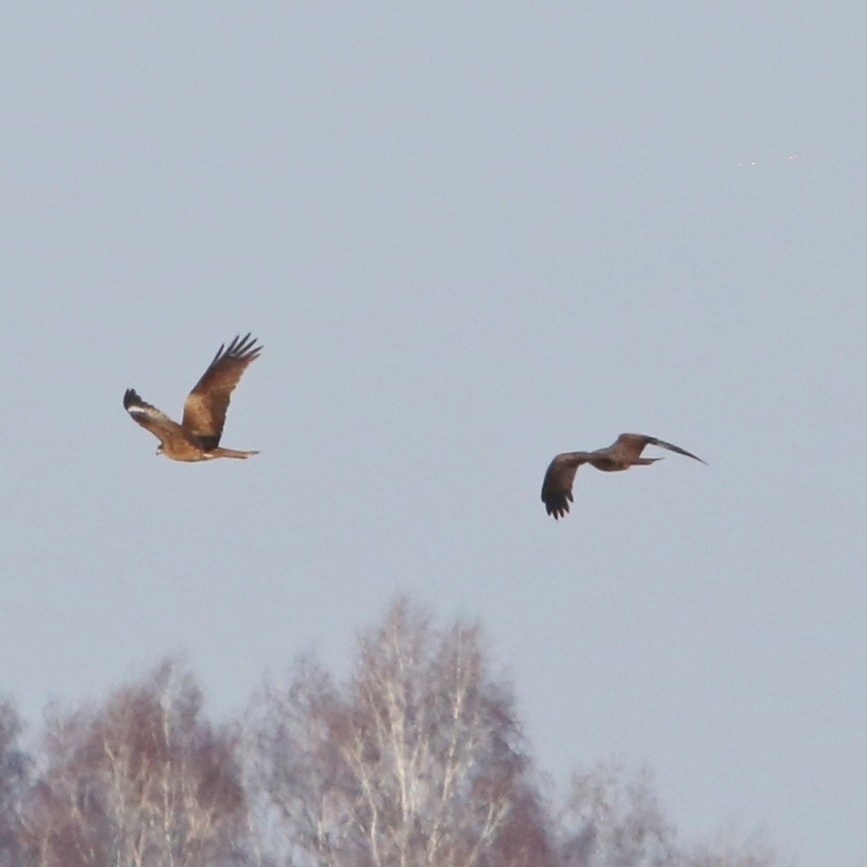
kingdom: Animalia
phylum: Chordata
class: Aves
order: Accipitriformes
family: Accipitridae
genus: Milvus
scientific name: Milvus migrans
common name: Black kite
